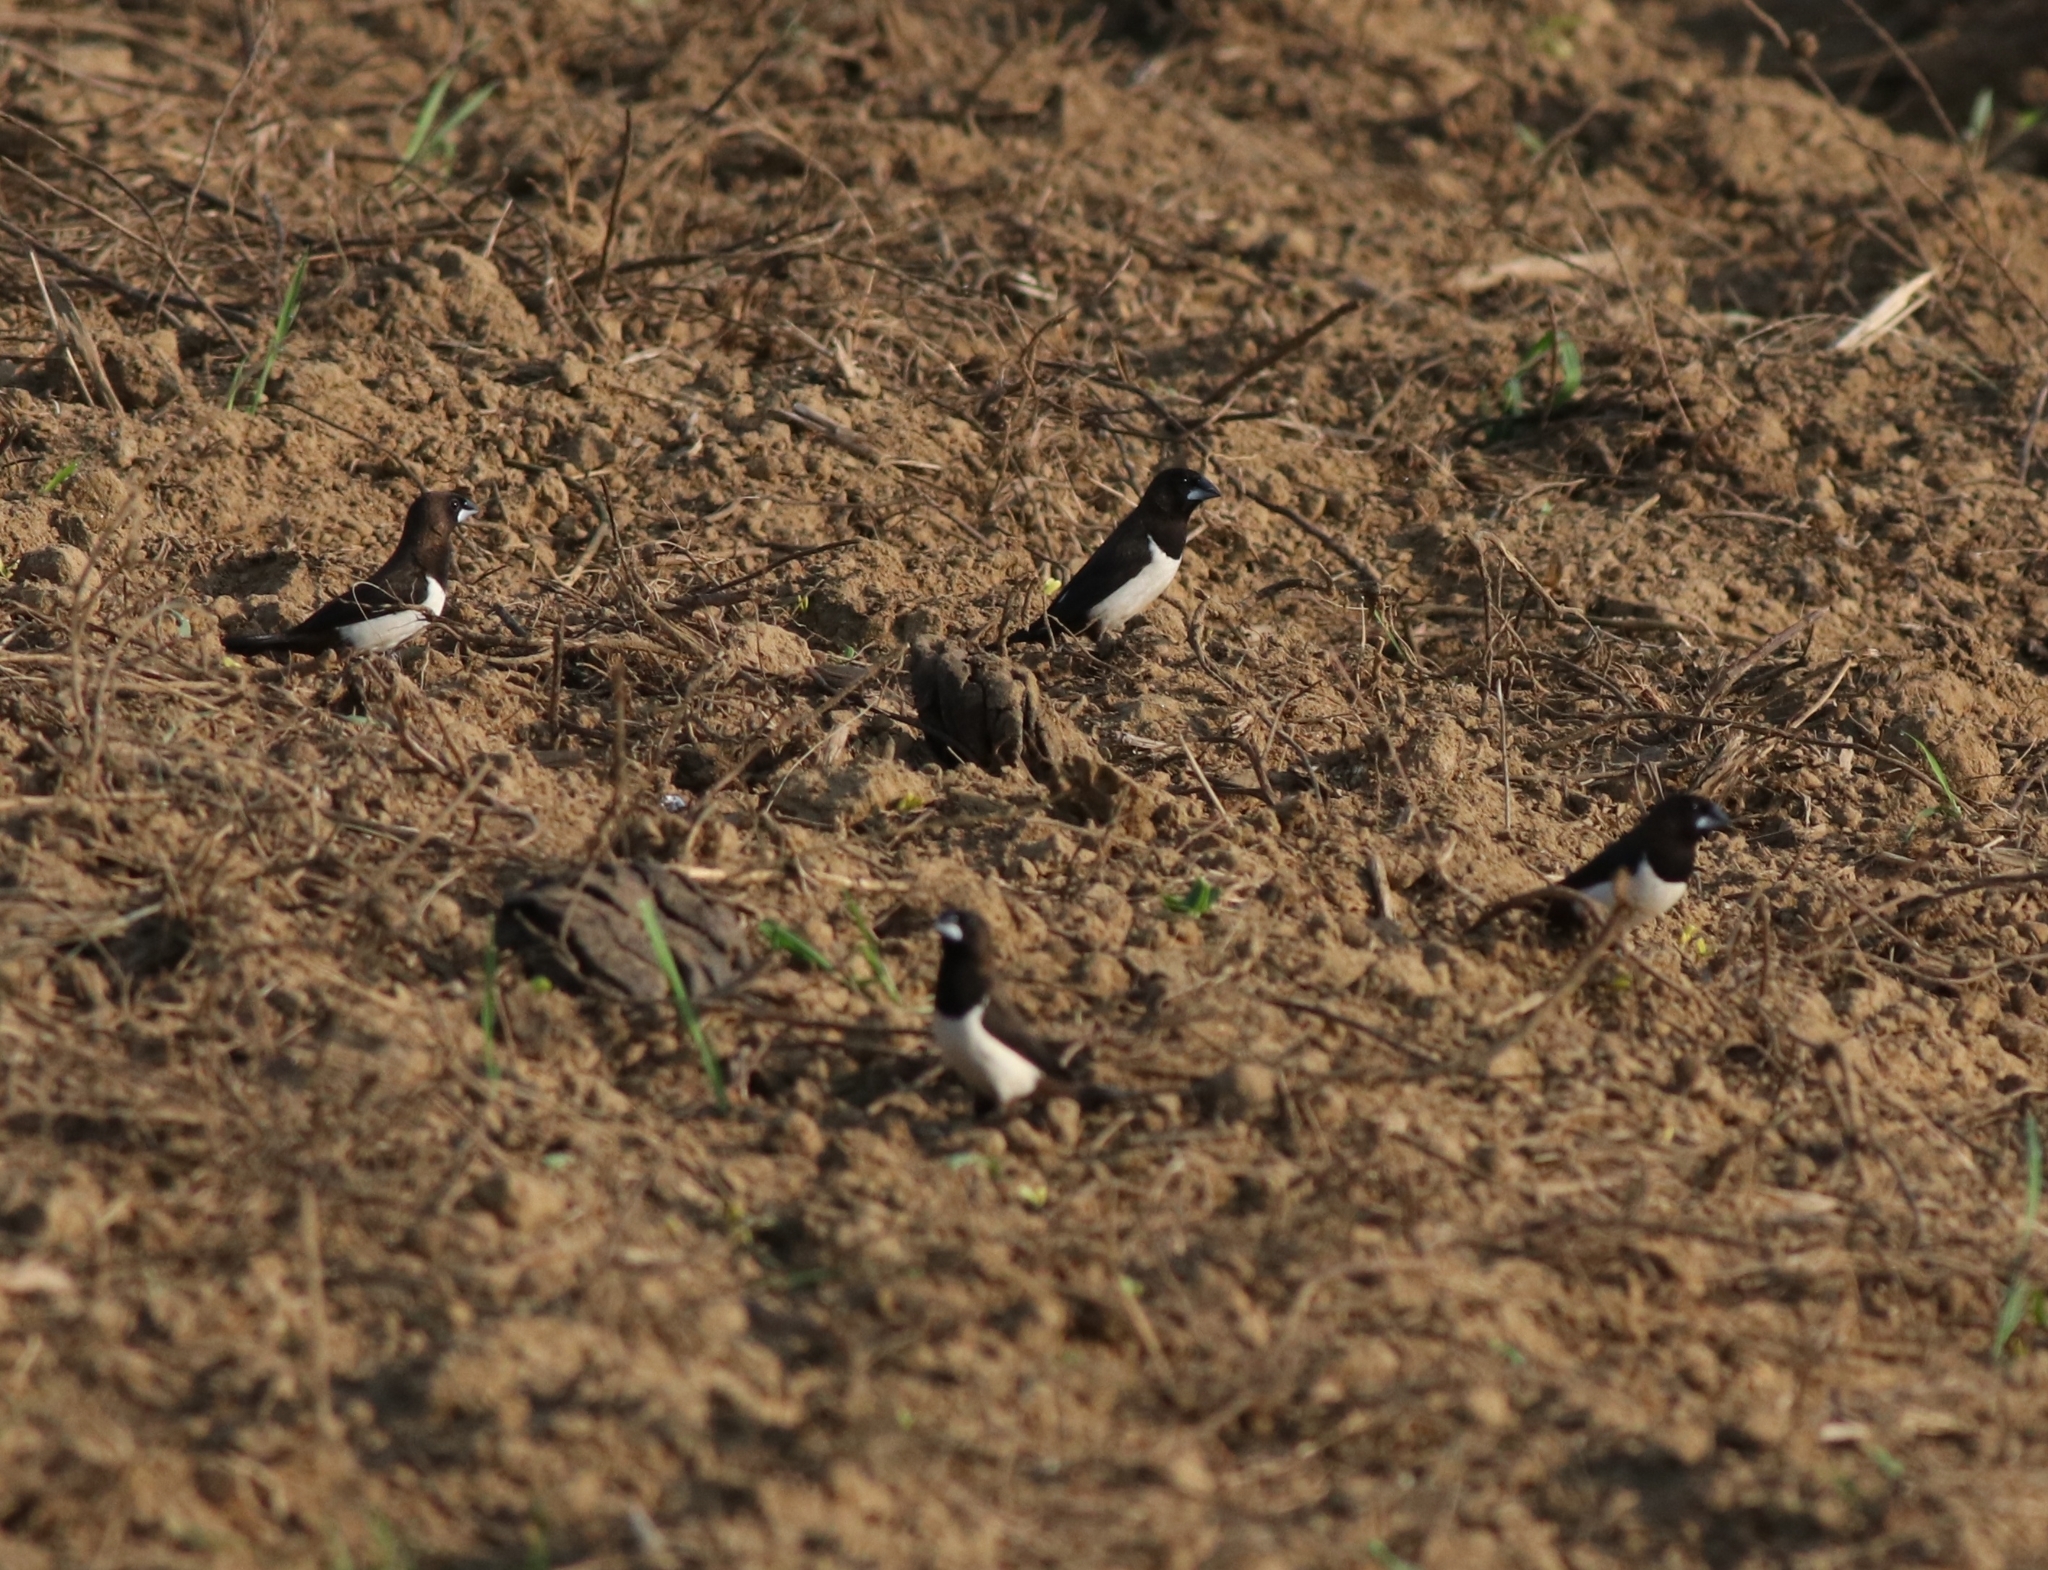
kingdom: Animalia
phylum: Chordata
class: Aves
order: Passeriformes
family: Estrildidae
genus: Lonchura
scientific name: Lonchura striata
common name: White-rumped munia
